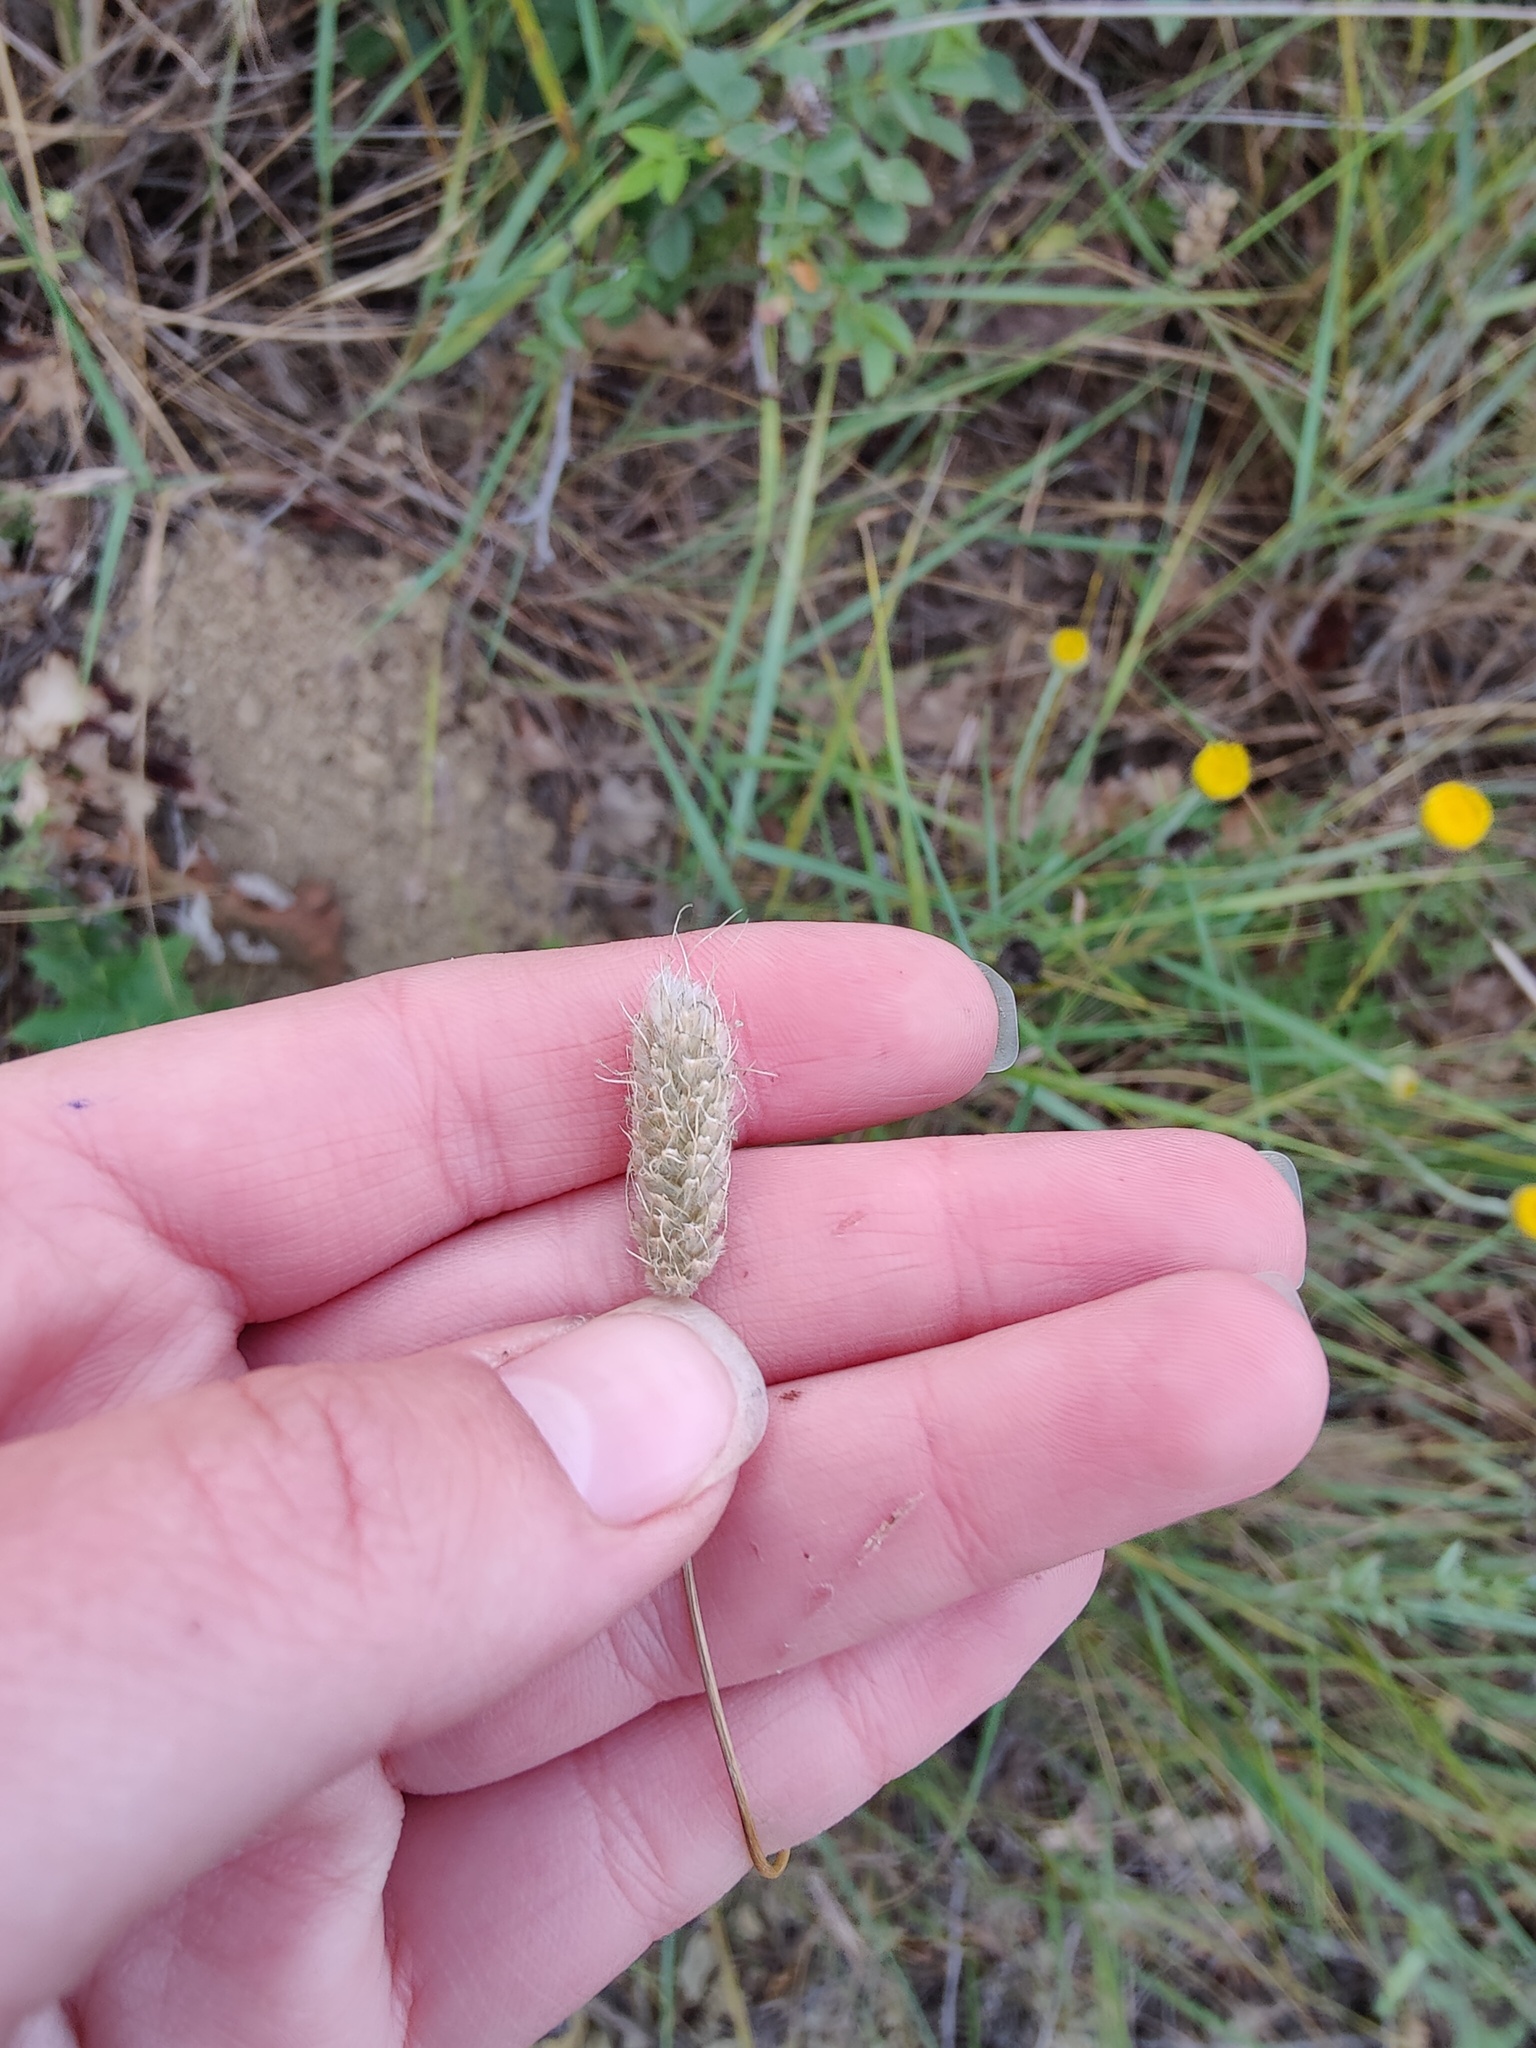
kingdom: Plantae
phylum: Tracheophyta
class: Liliopsida
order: Poales
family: Poaceae
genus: Alopecurus
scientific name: Alopecurus vaginatus
